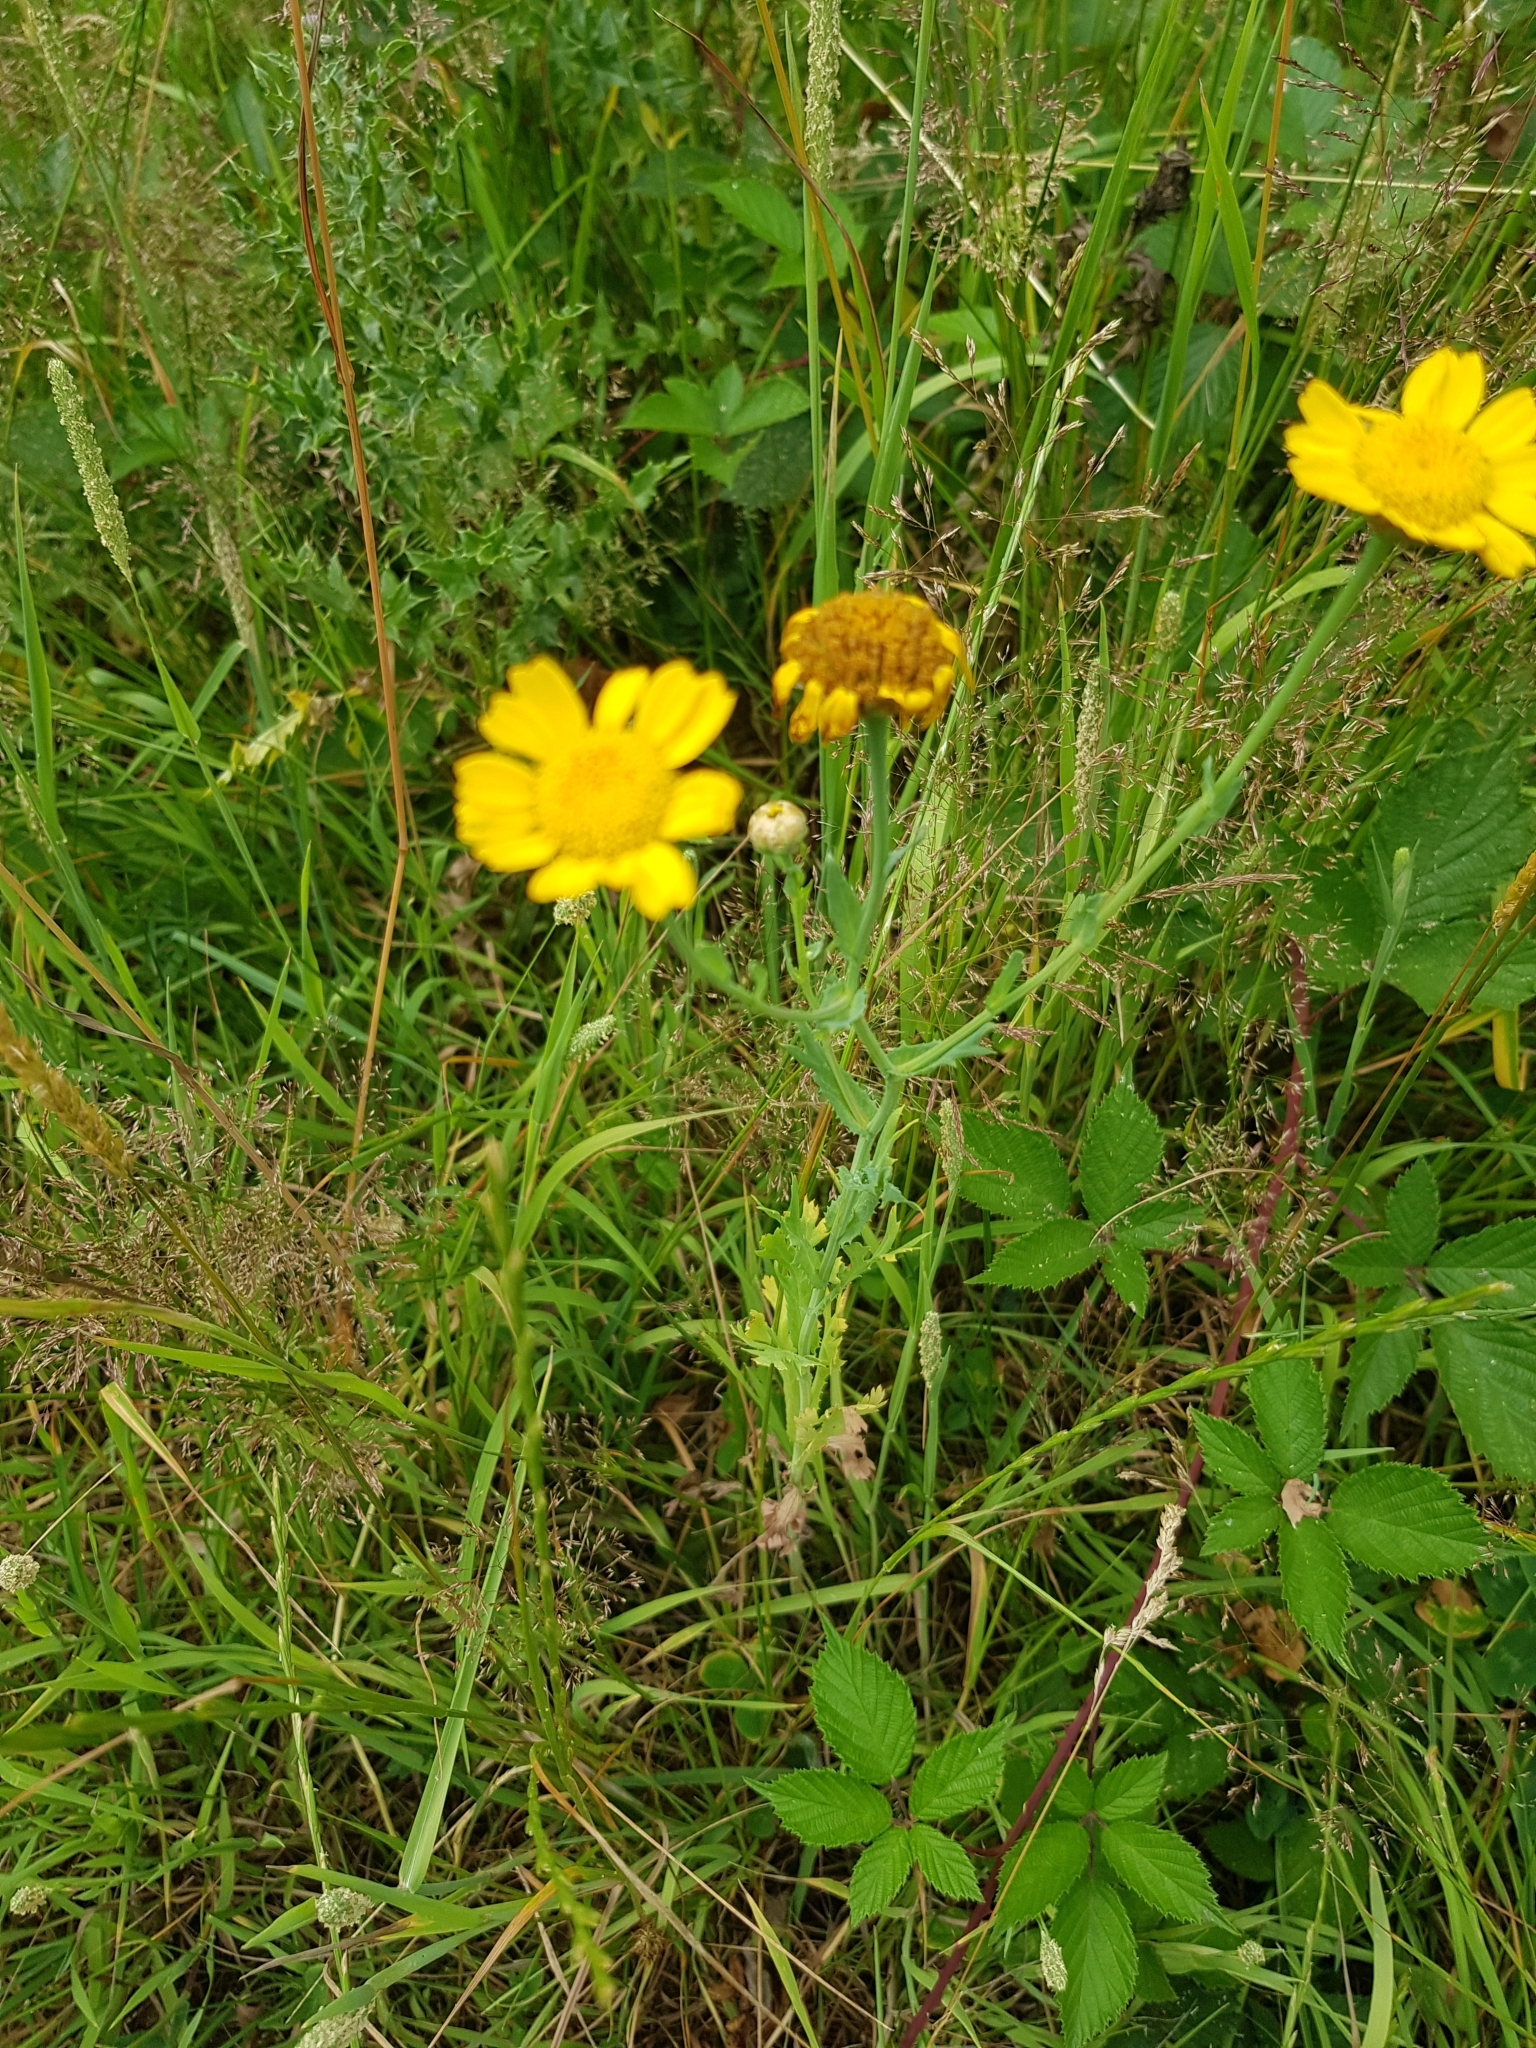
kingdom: Plantae
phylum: Tracheophyta
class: Magnoliopsida
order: Asterales
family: Asteraceae
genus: Glebionis
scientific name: Glebionis segetum
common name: Corndaisy
